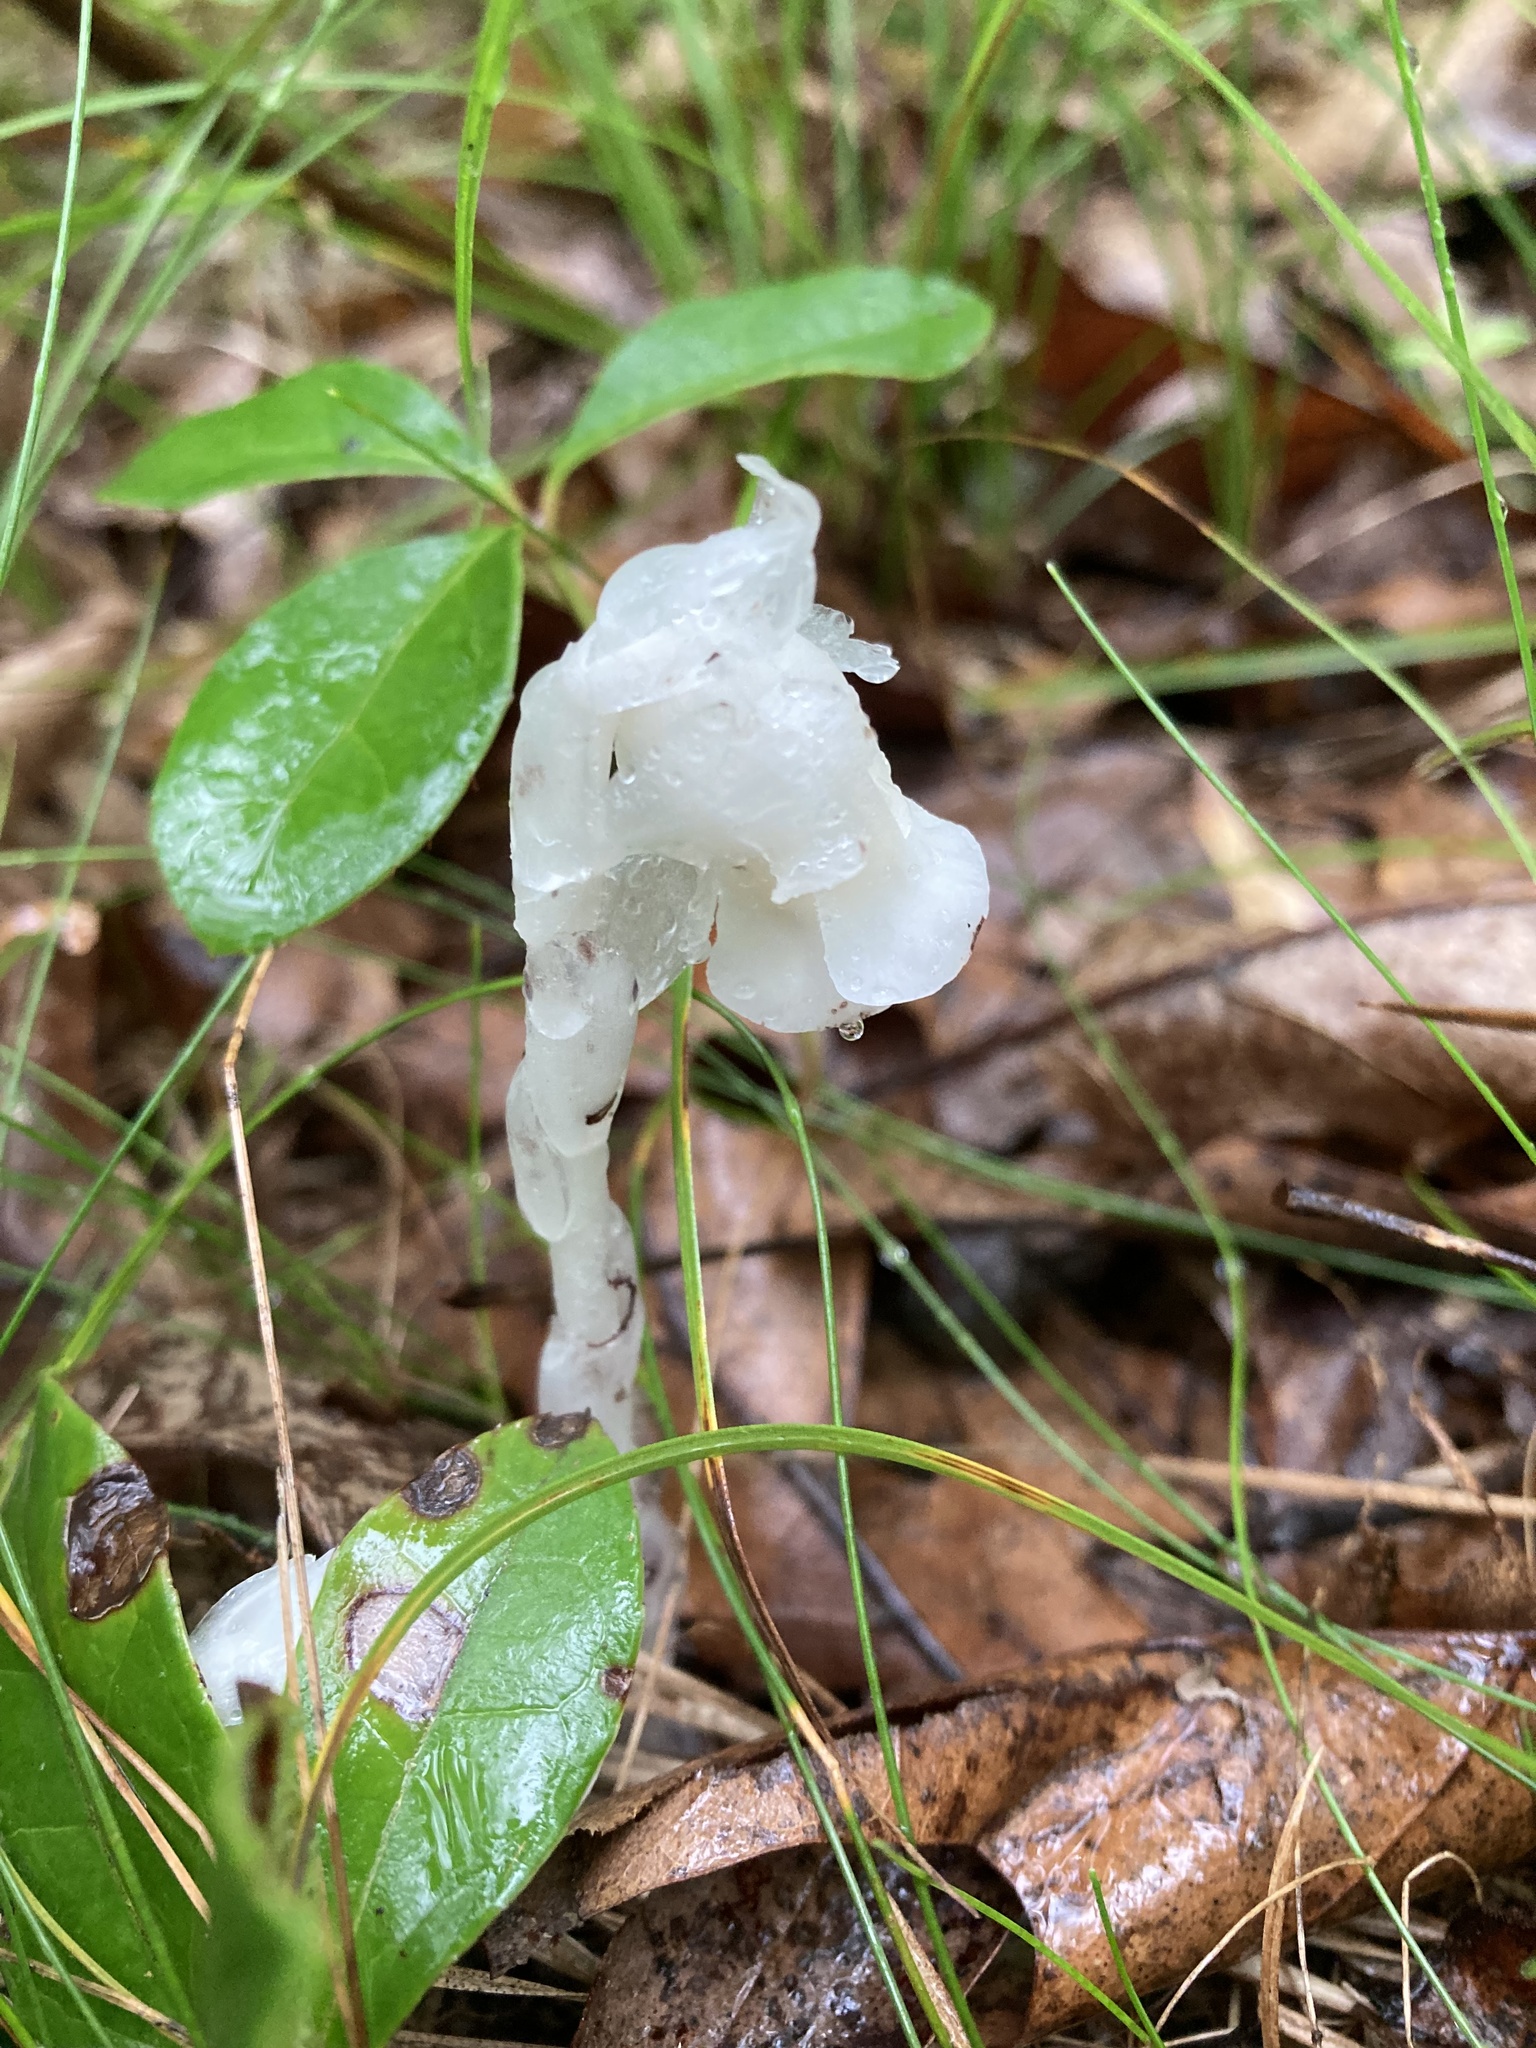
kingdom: Plantae
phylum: Tracheophyta
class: Magnoliopsida
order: Ericales
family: Ericaceae
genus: Monotropa
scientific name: Monotropa uniflora
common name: Convulsion root
